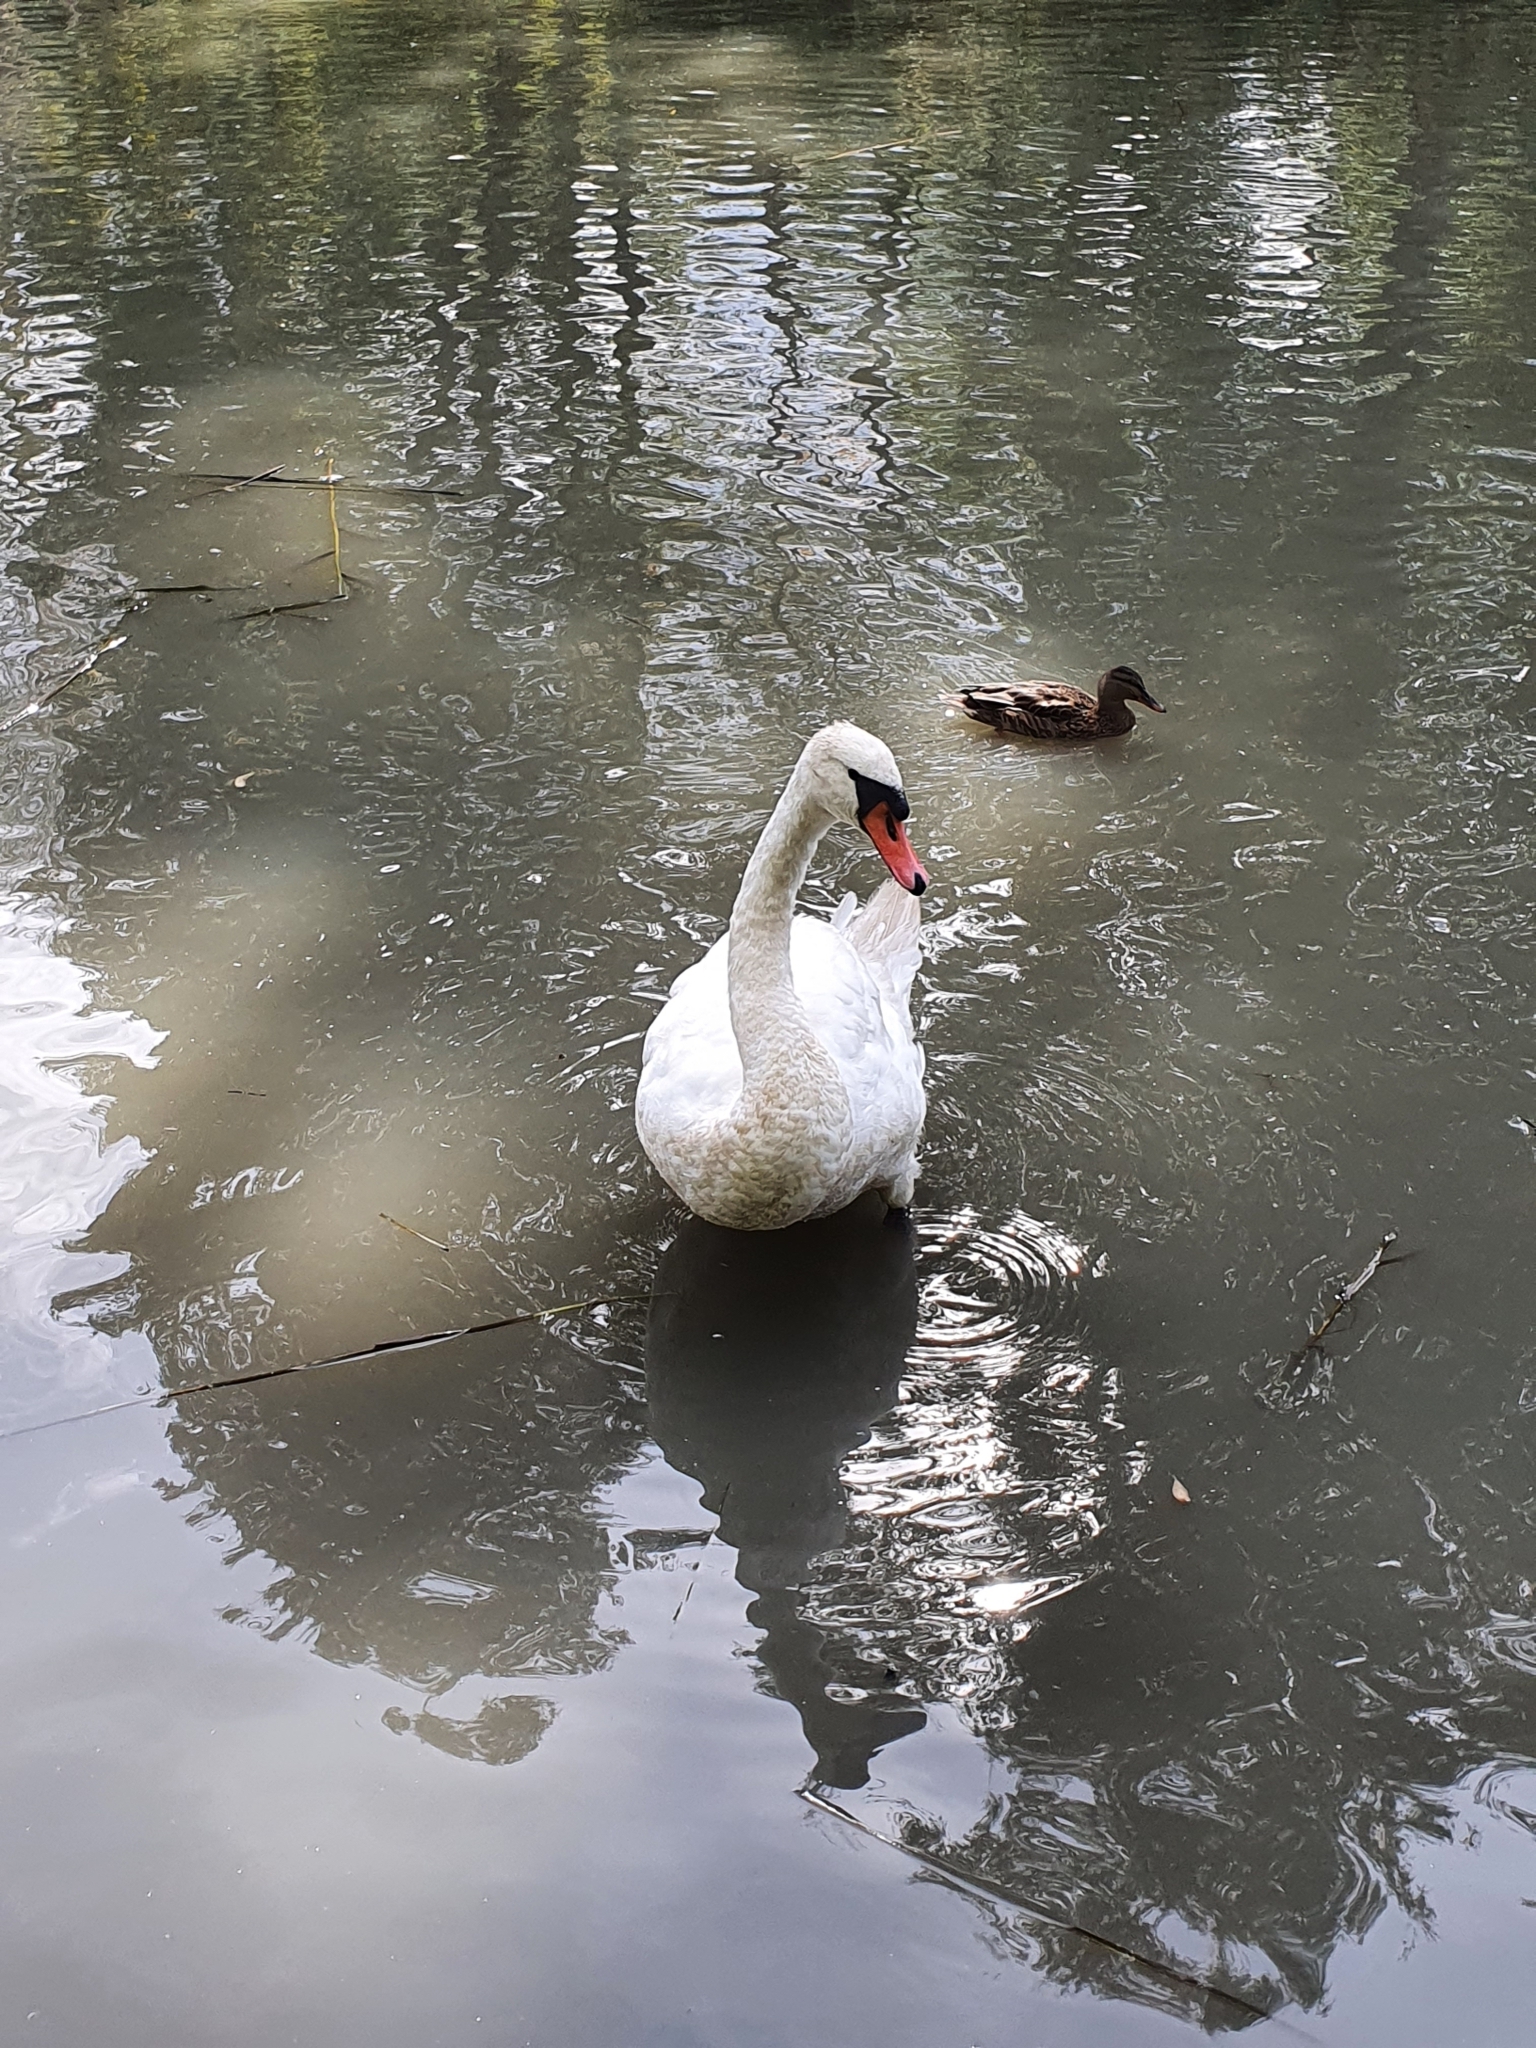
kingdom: Animalia
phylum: Chordata
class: Aves
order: Anseriformes
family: Anatidae
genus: Cygnus
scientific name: Cygnus olor
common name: Mute swan
